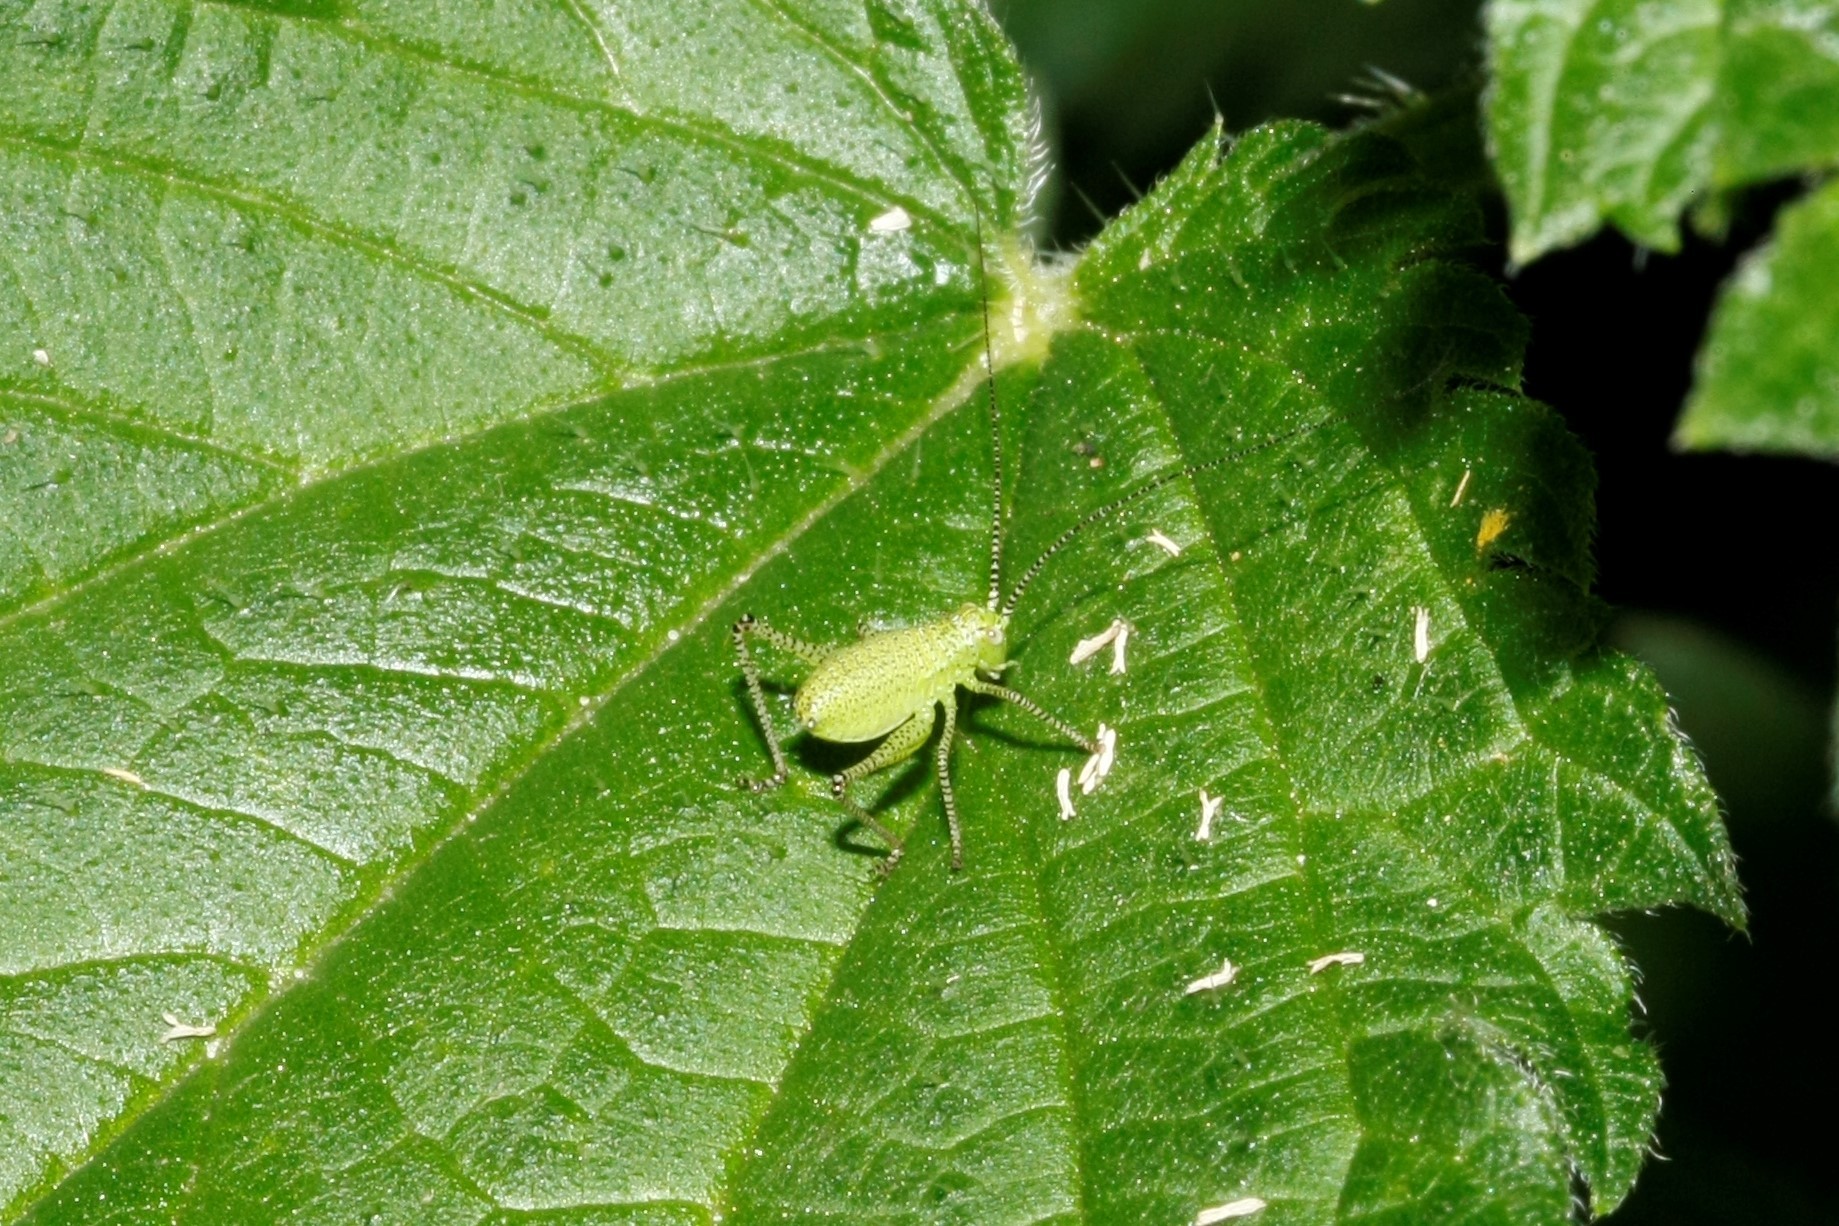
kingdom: Animalia
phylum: Arthropoda
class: Insecta
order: Orthoptera
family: Tettigoniidae
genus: Leptophyes
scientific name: Leptophyes punctatissima
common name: Speckled bush-cricket
